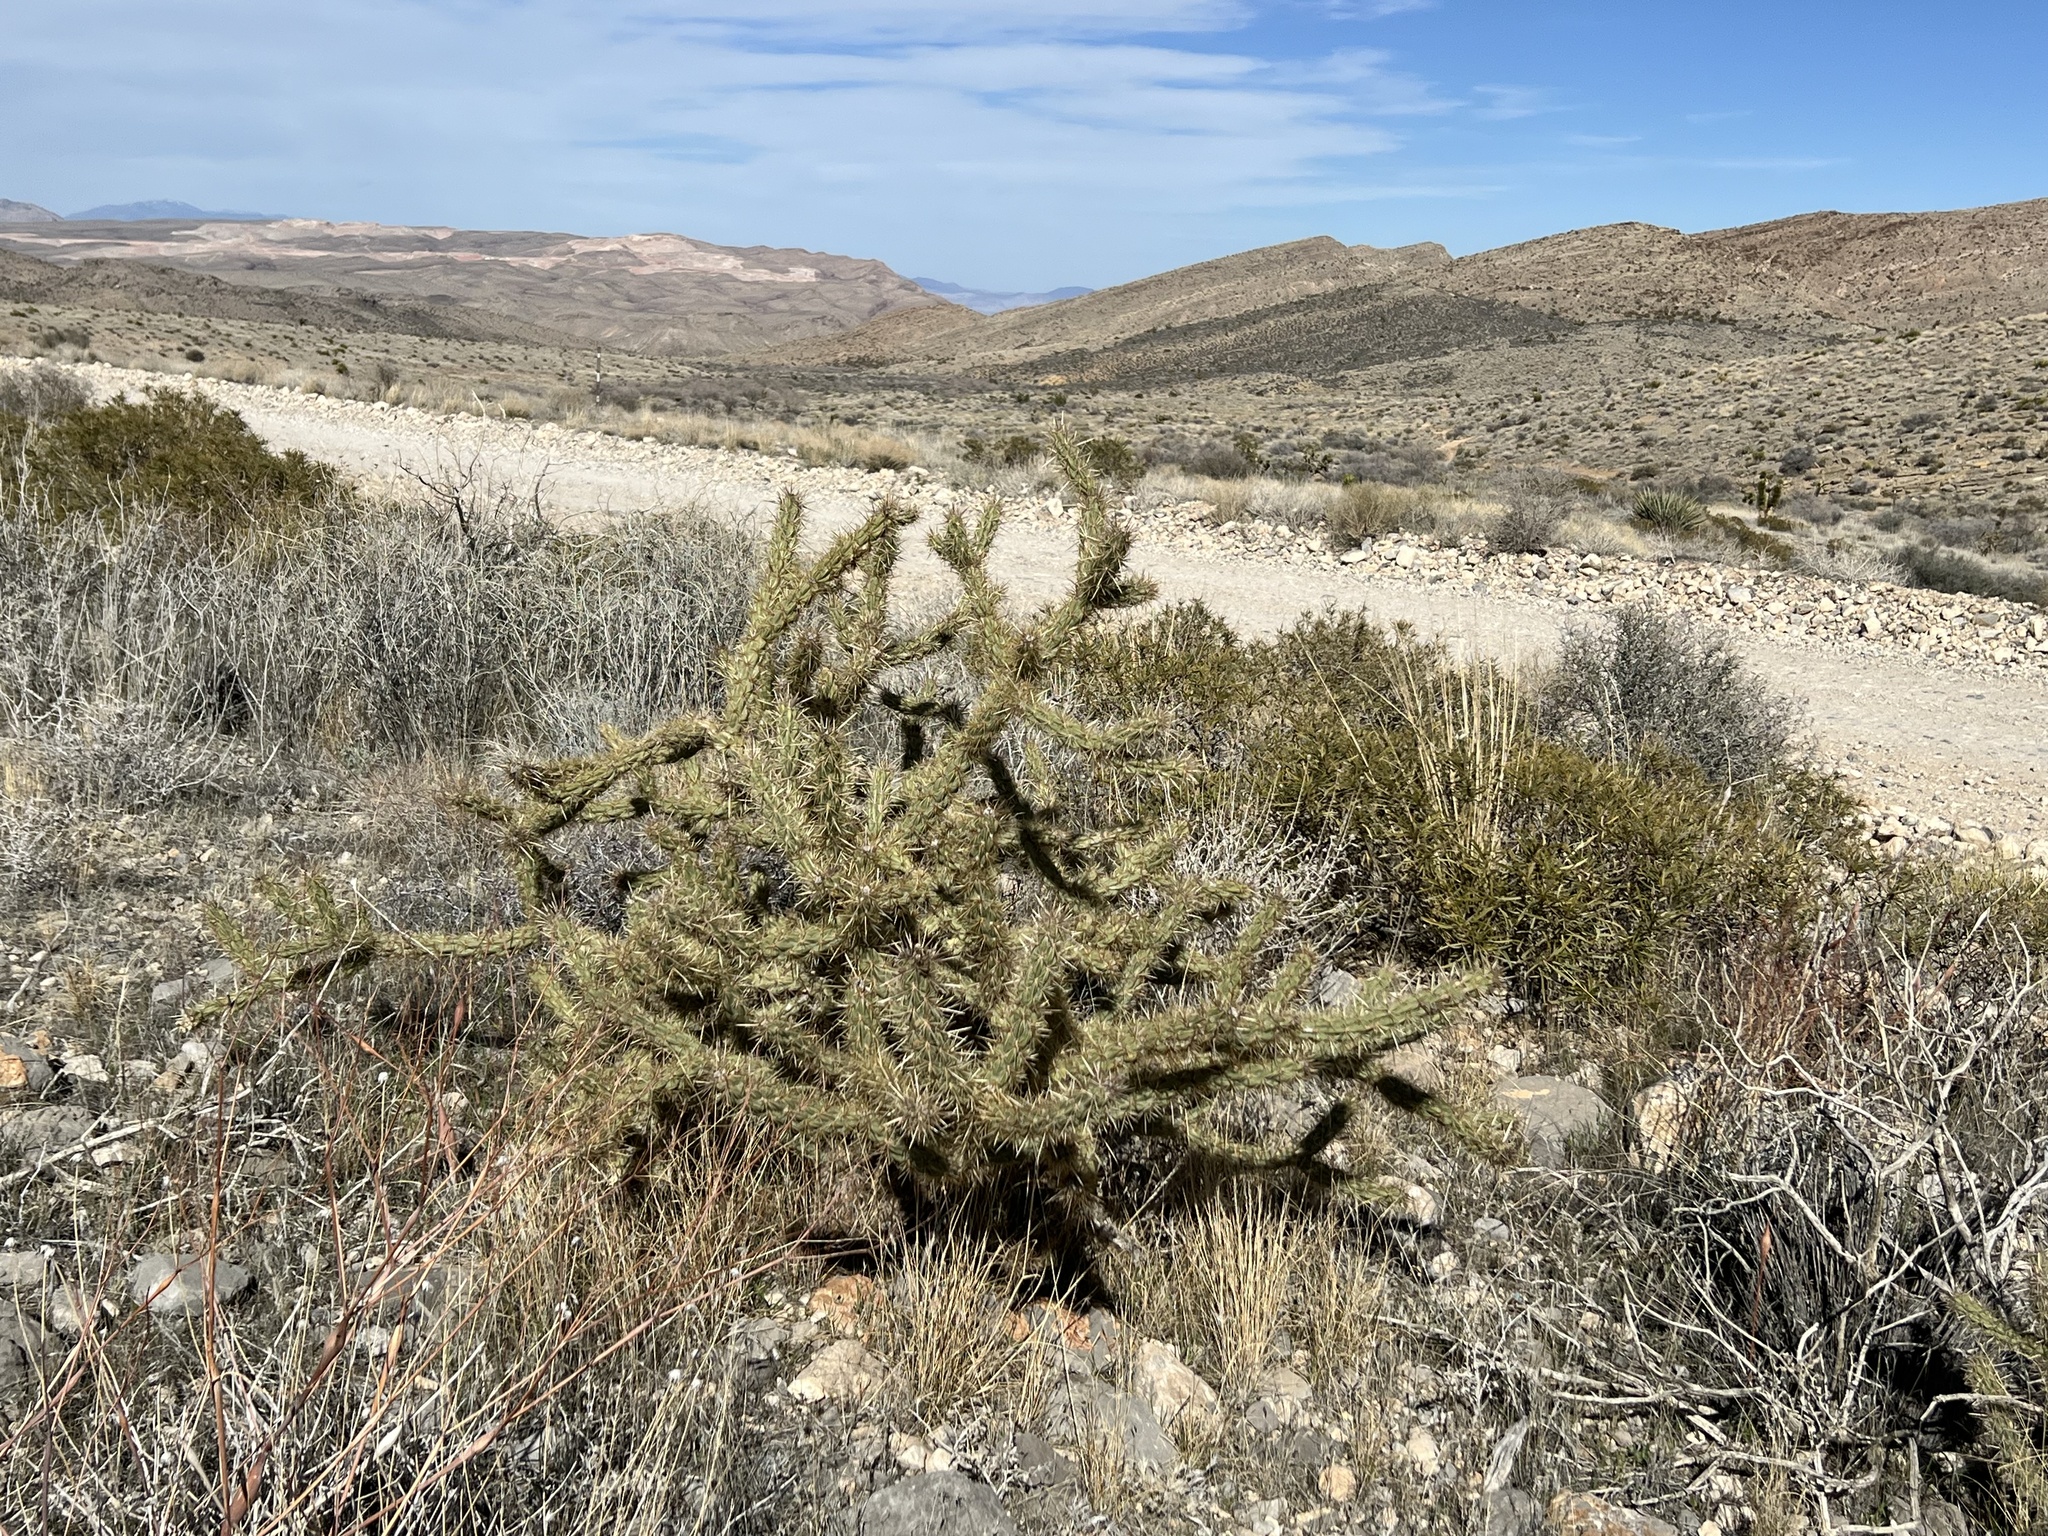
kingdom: Plantae
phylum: Tracheophyta
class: Magnoliopsida
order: Caryophyllales
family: Cactaceae
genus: Cylindropuntia
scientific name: Cylindropuntia acanthocarpa
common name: Buckhorn cholla
